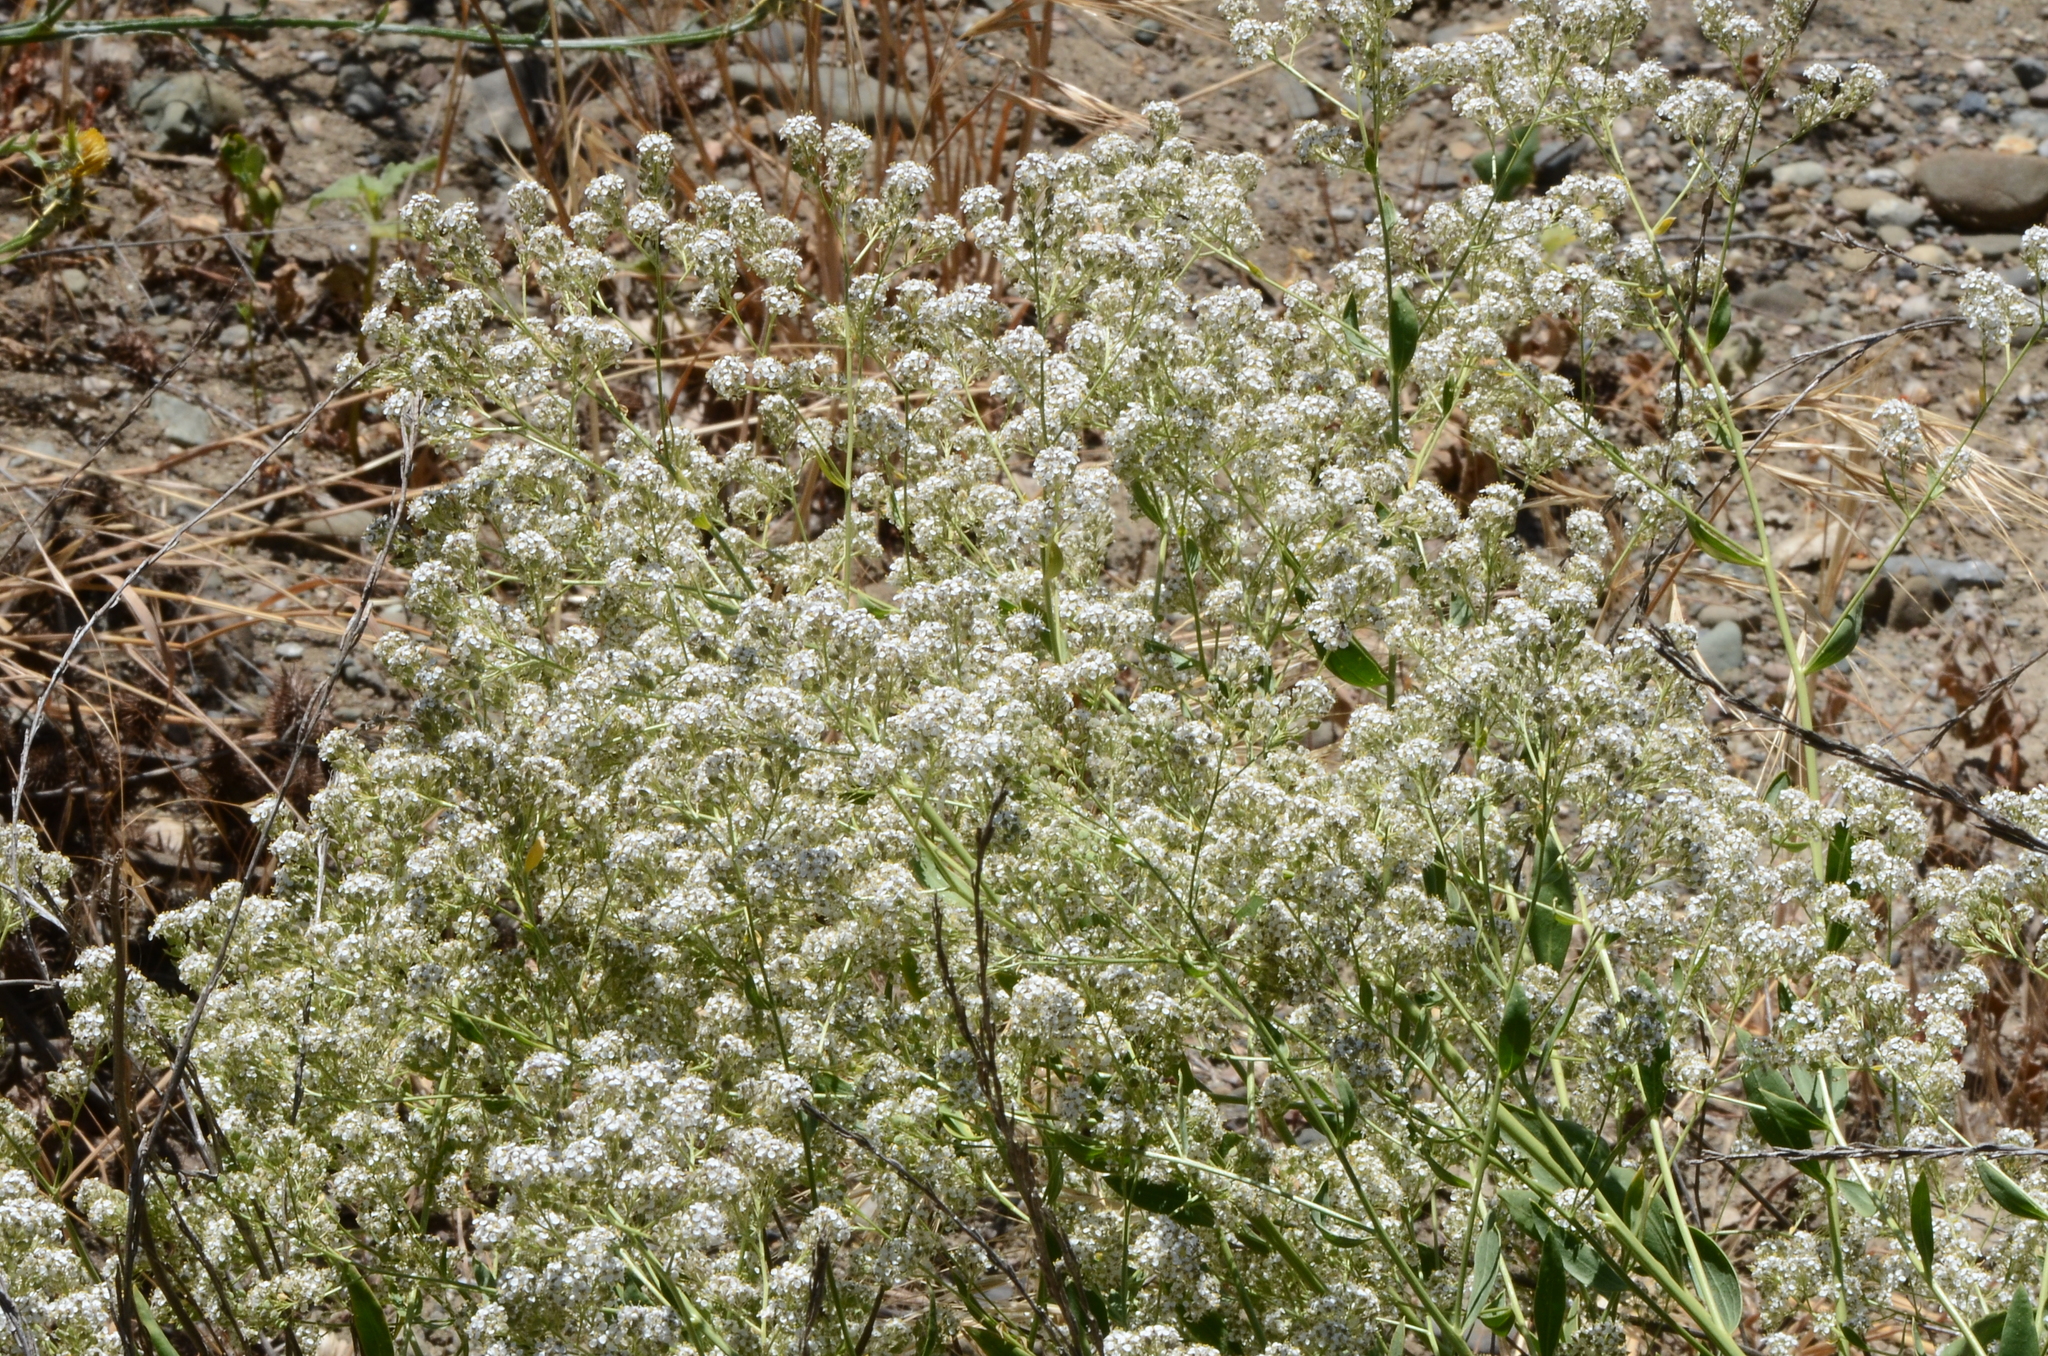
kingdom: Plantae
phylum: Tracheophyta
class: Magnoliopsida
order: Brassicales
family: Brassicaceae
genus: Lepidium
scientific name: Lepidium latifolium
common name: Dittander
